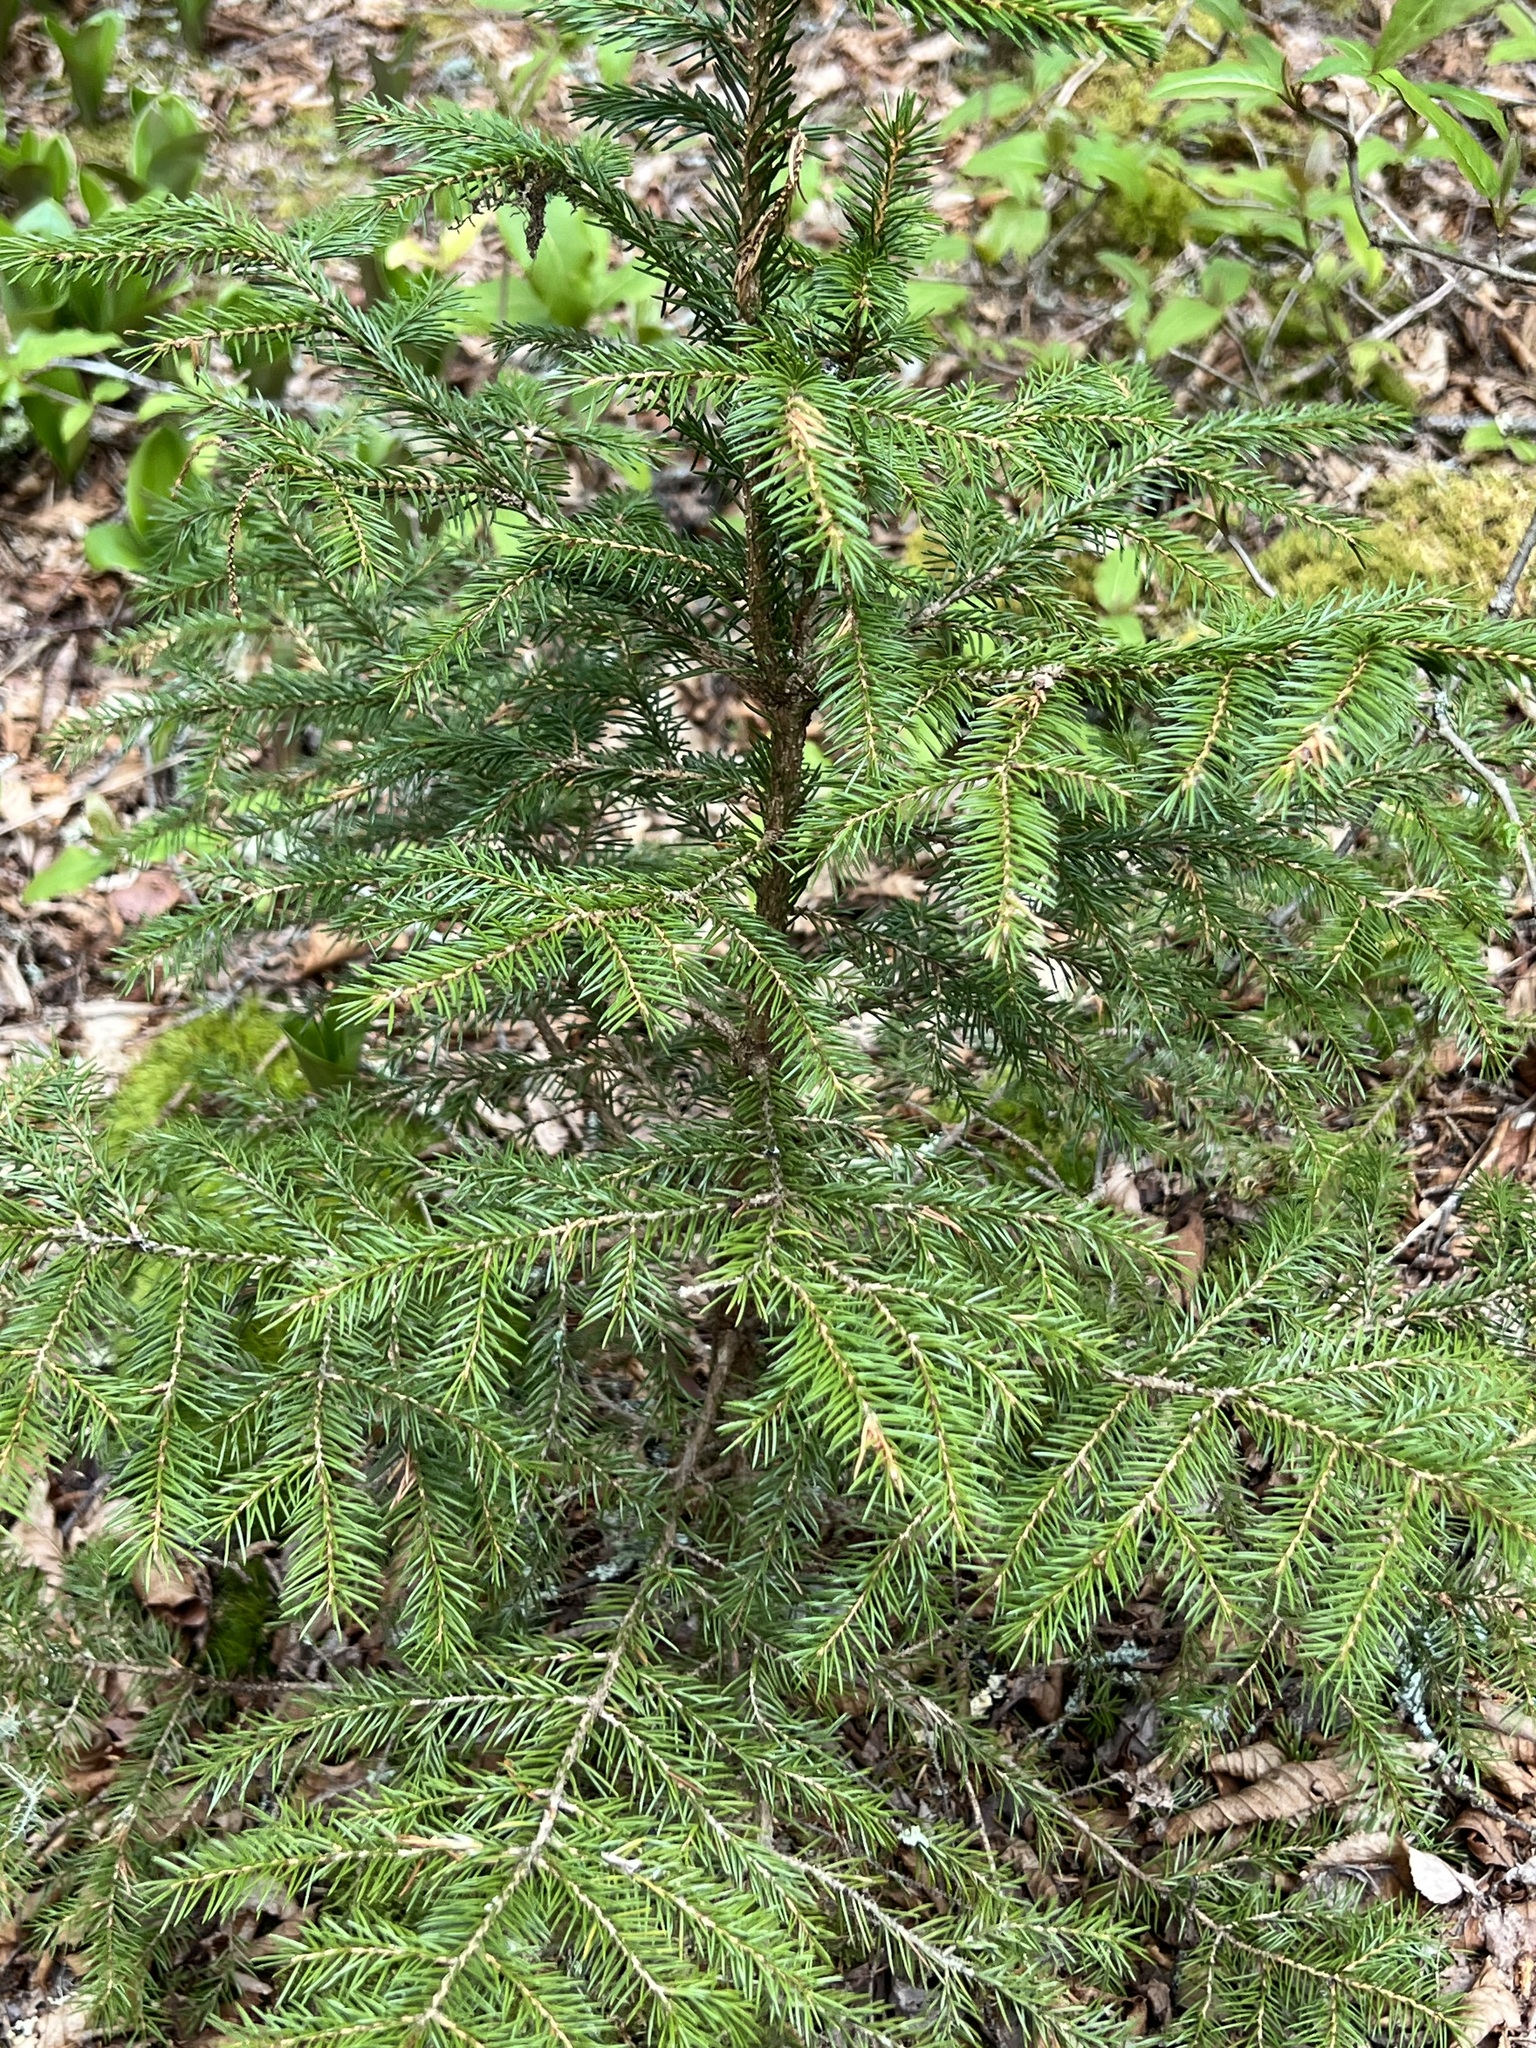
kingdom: Plantae
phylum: Tracheophyta
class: Pinopsida
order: Pinales
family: Pinaceae
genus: Picea
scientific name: Picea rubens
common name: Red spruce
